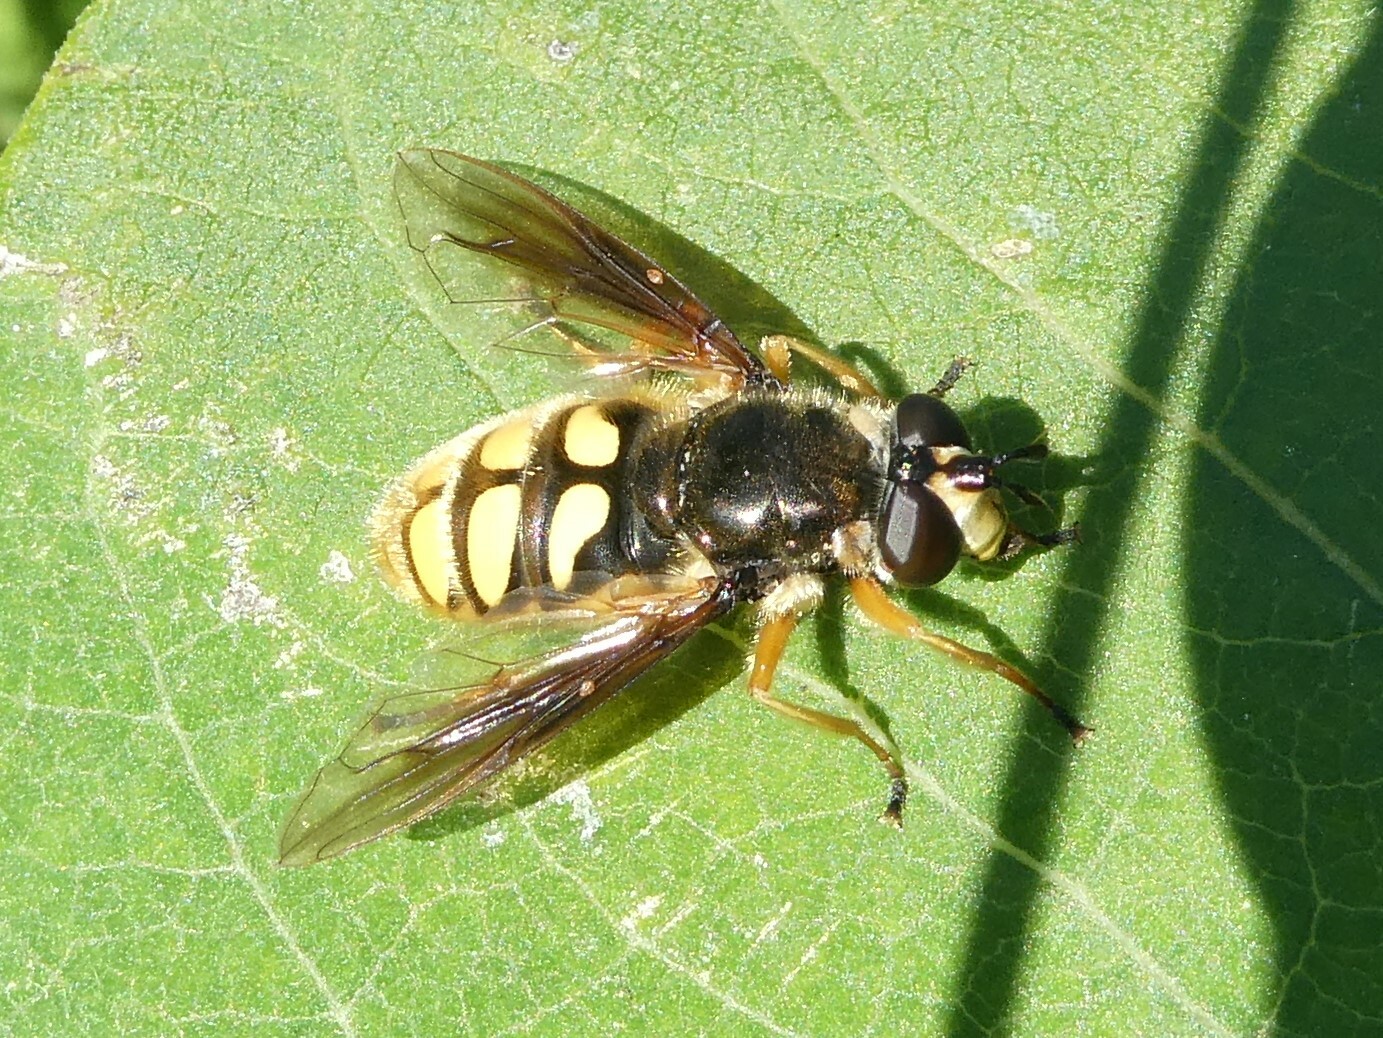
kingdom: Animalia
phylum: Arthropoda
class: Insecta
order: Diptera
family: Syrphidae
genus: Somula
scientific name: Somula decora
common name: Spotted wood fly
